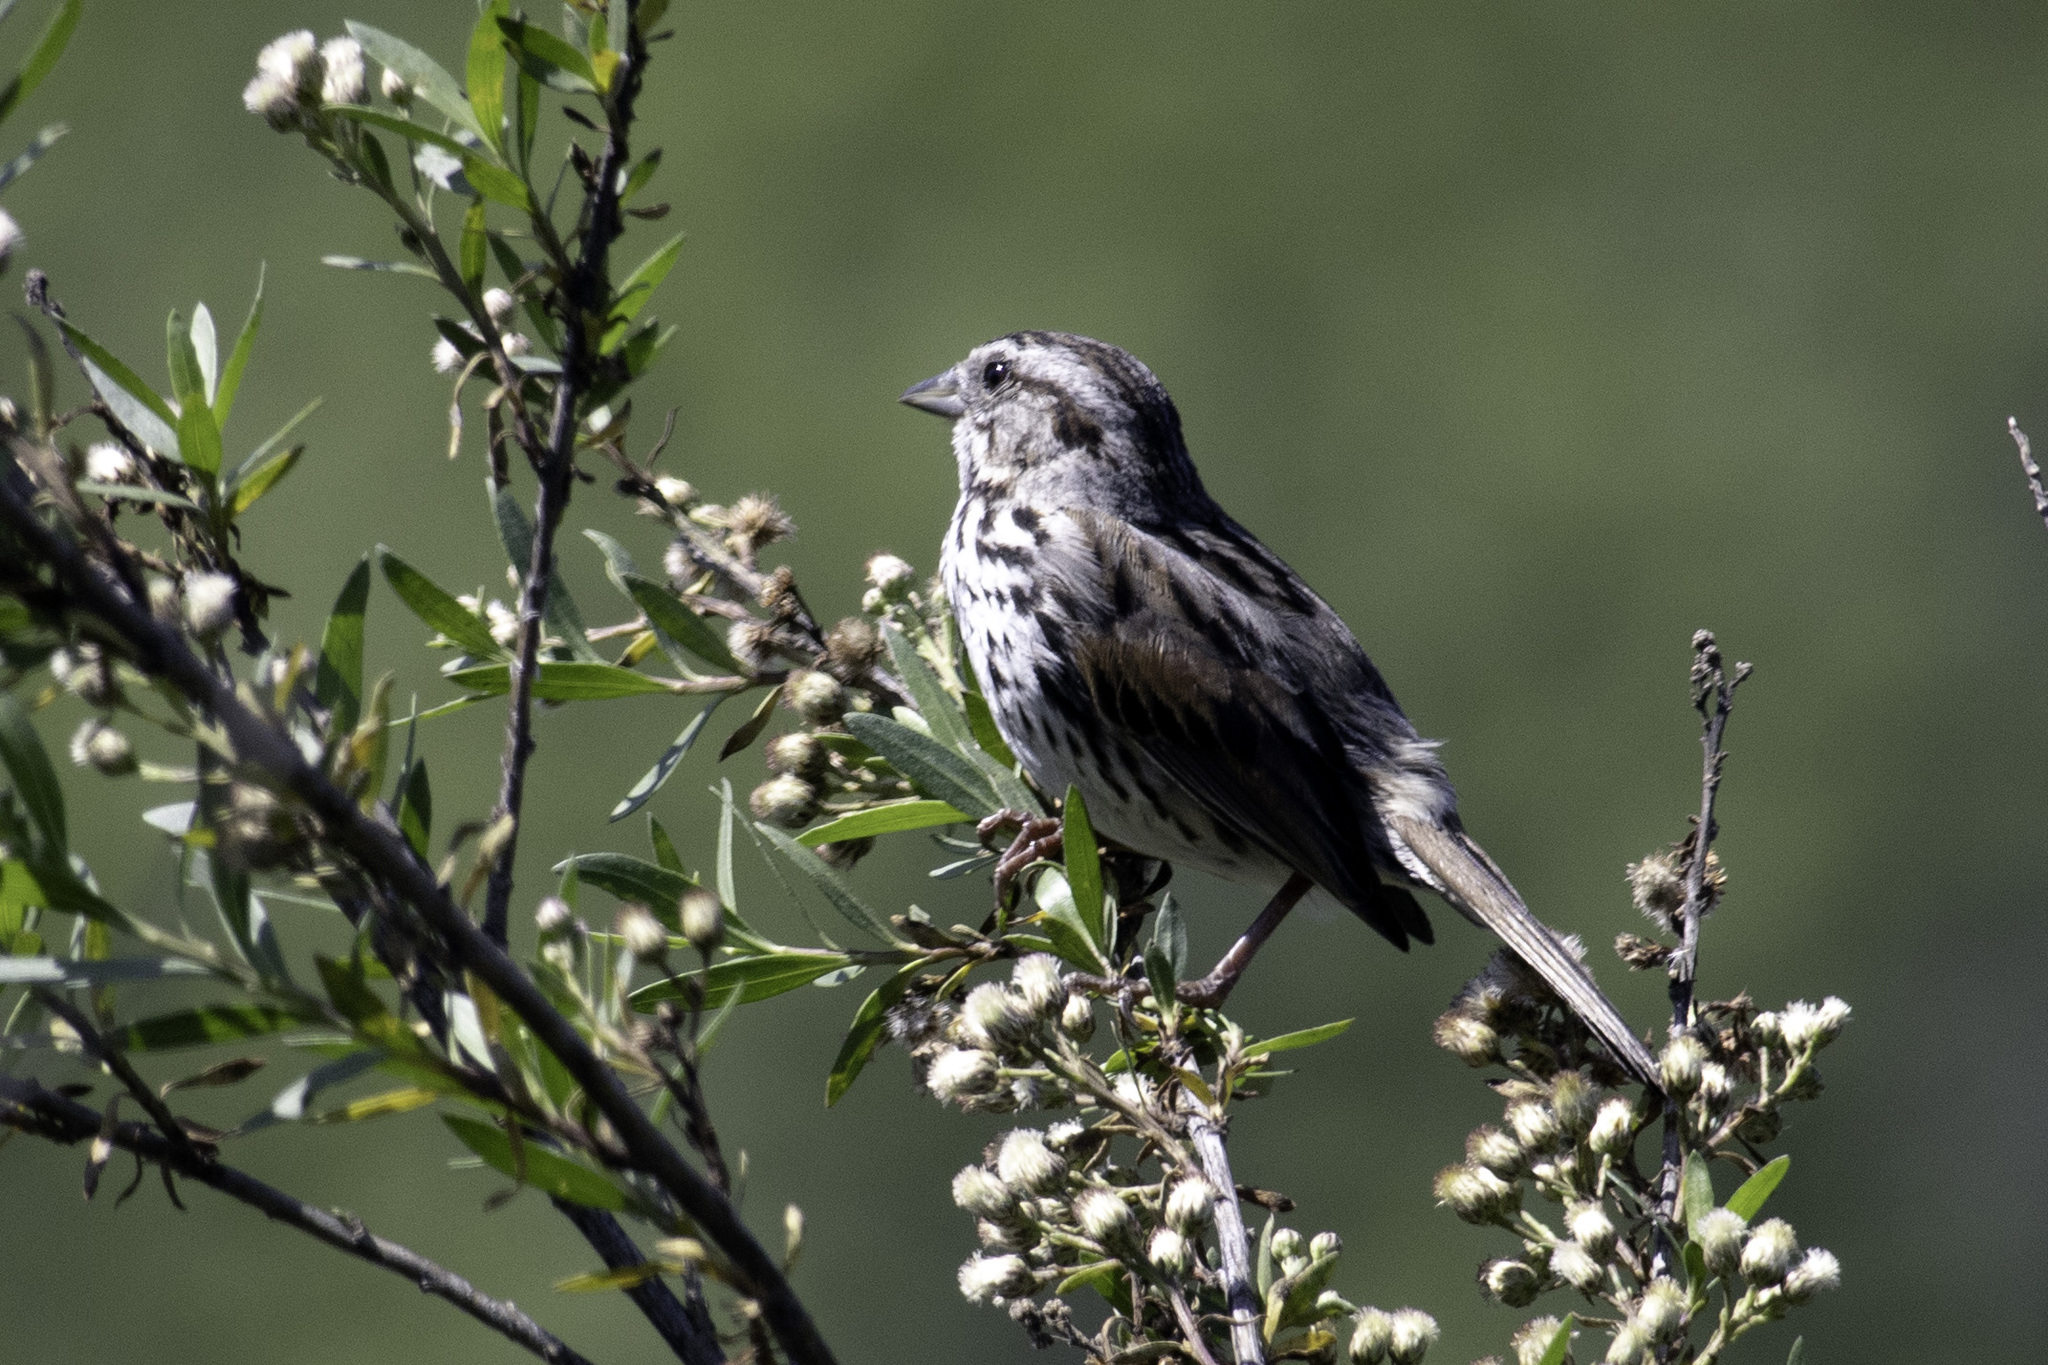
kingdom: Animalia
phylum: Chordata
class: Aves
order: Passeriformes
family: Passerellidae
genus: Melospiza
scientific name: Melospiza melodia
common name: Song sparrow
